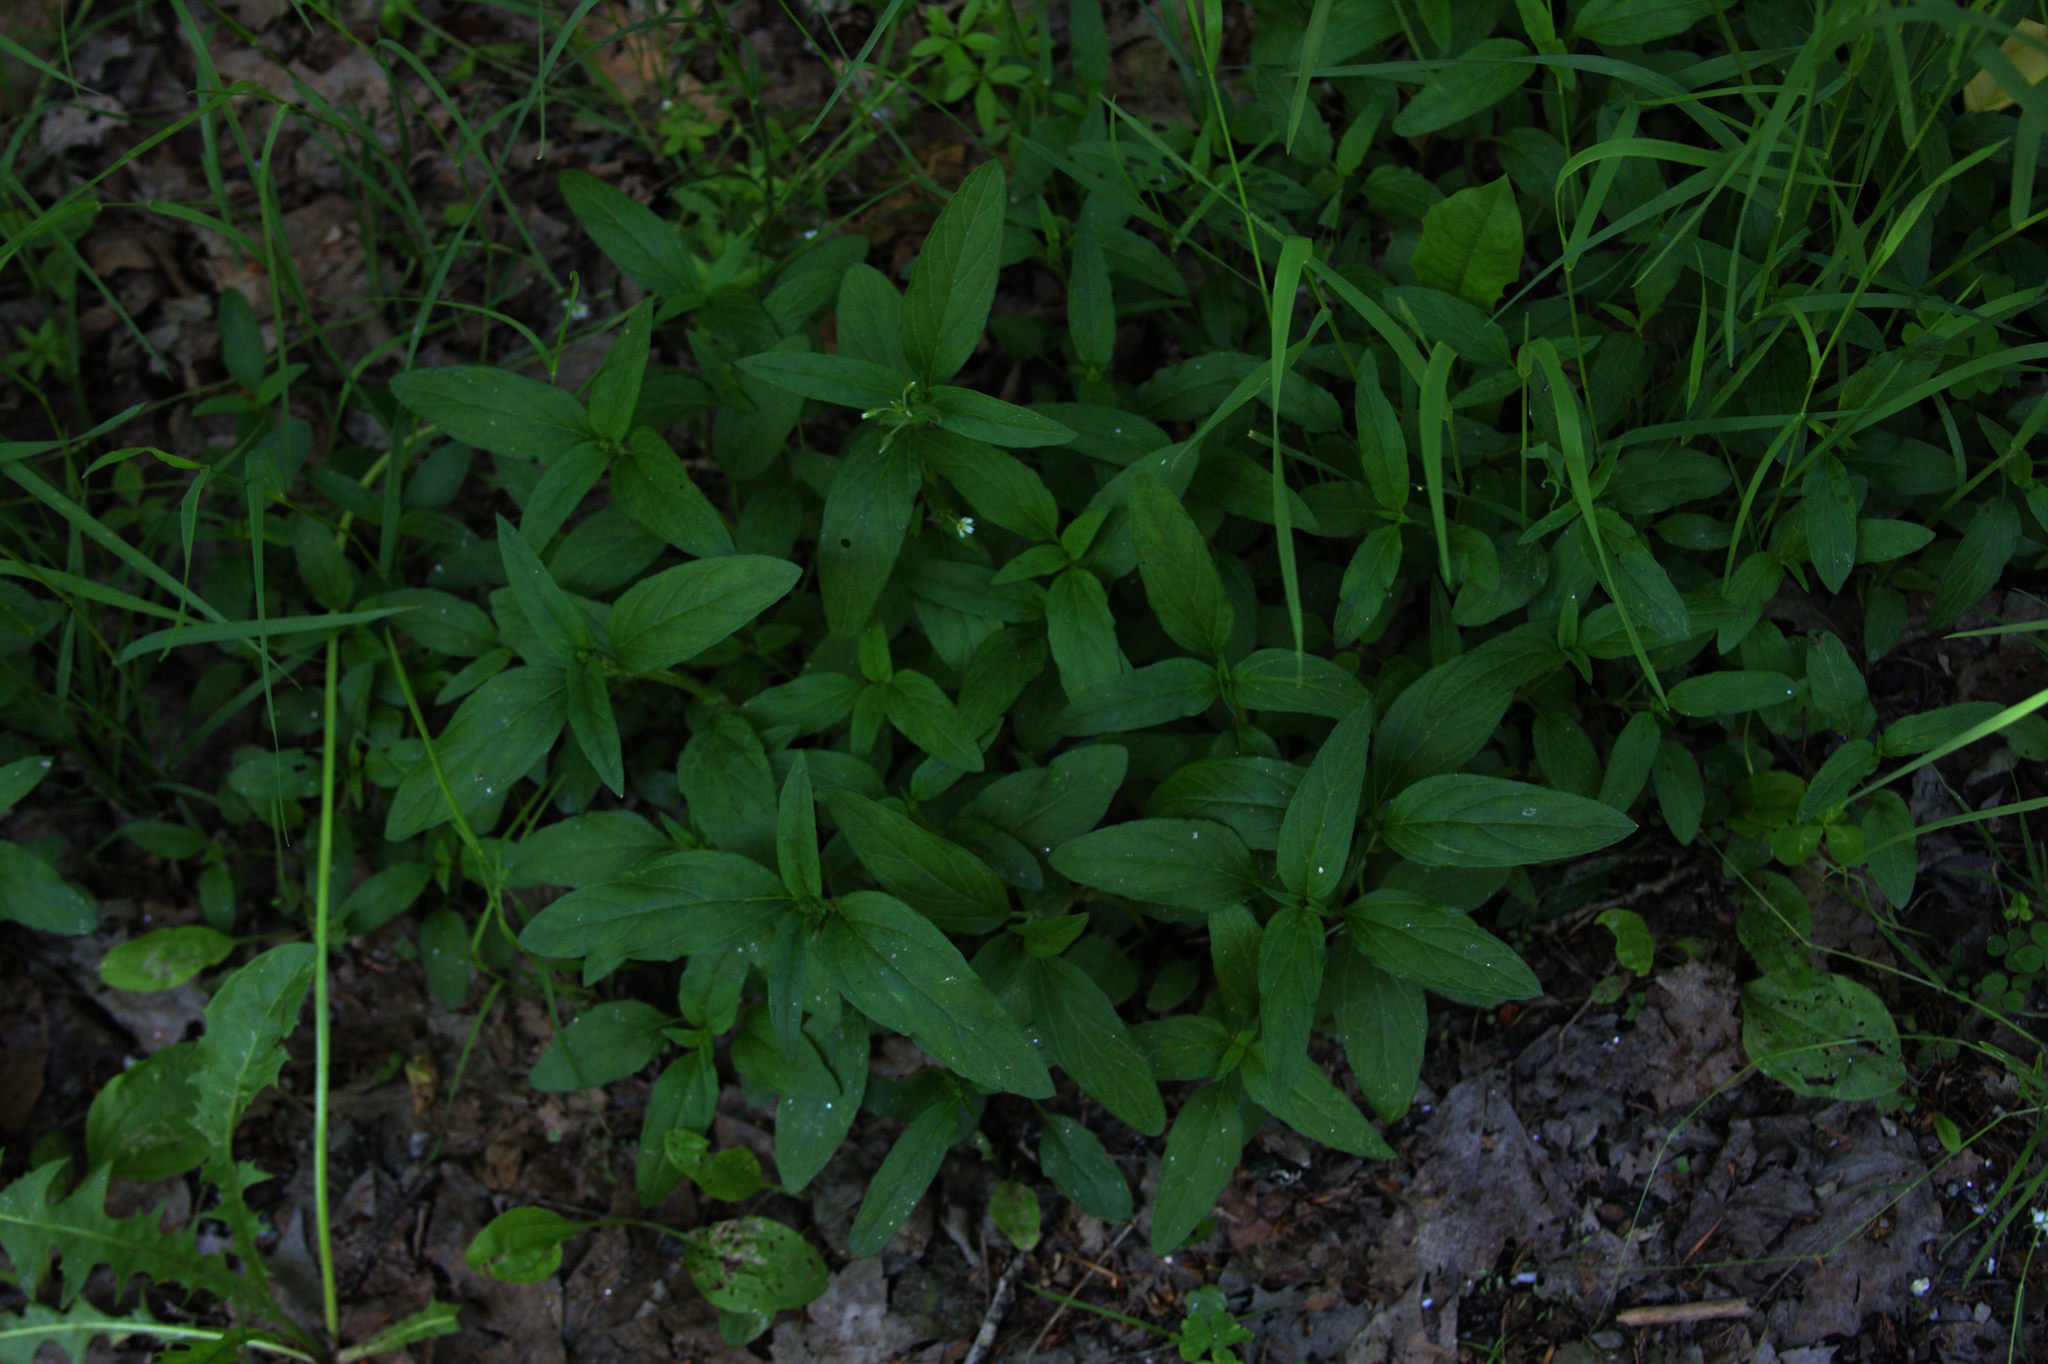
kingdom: Plantae
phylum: Tracheophyta
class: Magnoliopsida
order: Lamiales
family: Lamiaceae
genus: Prunella
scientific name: Prunella vulgaris
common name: Heal-all
